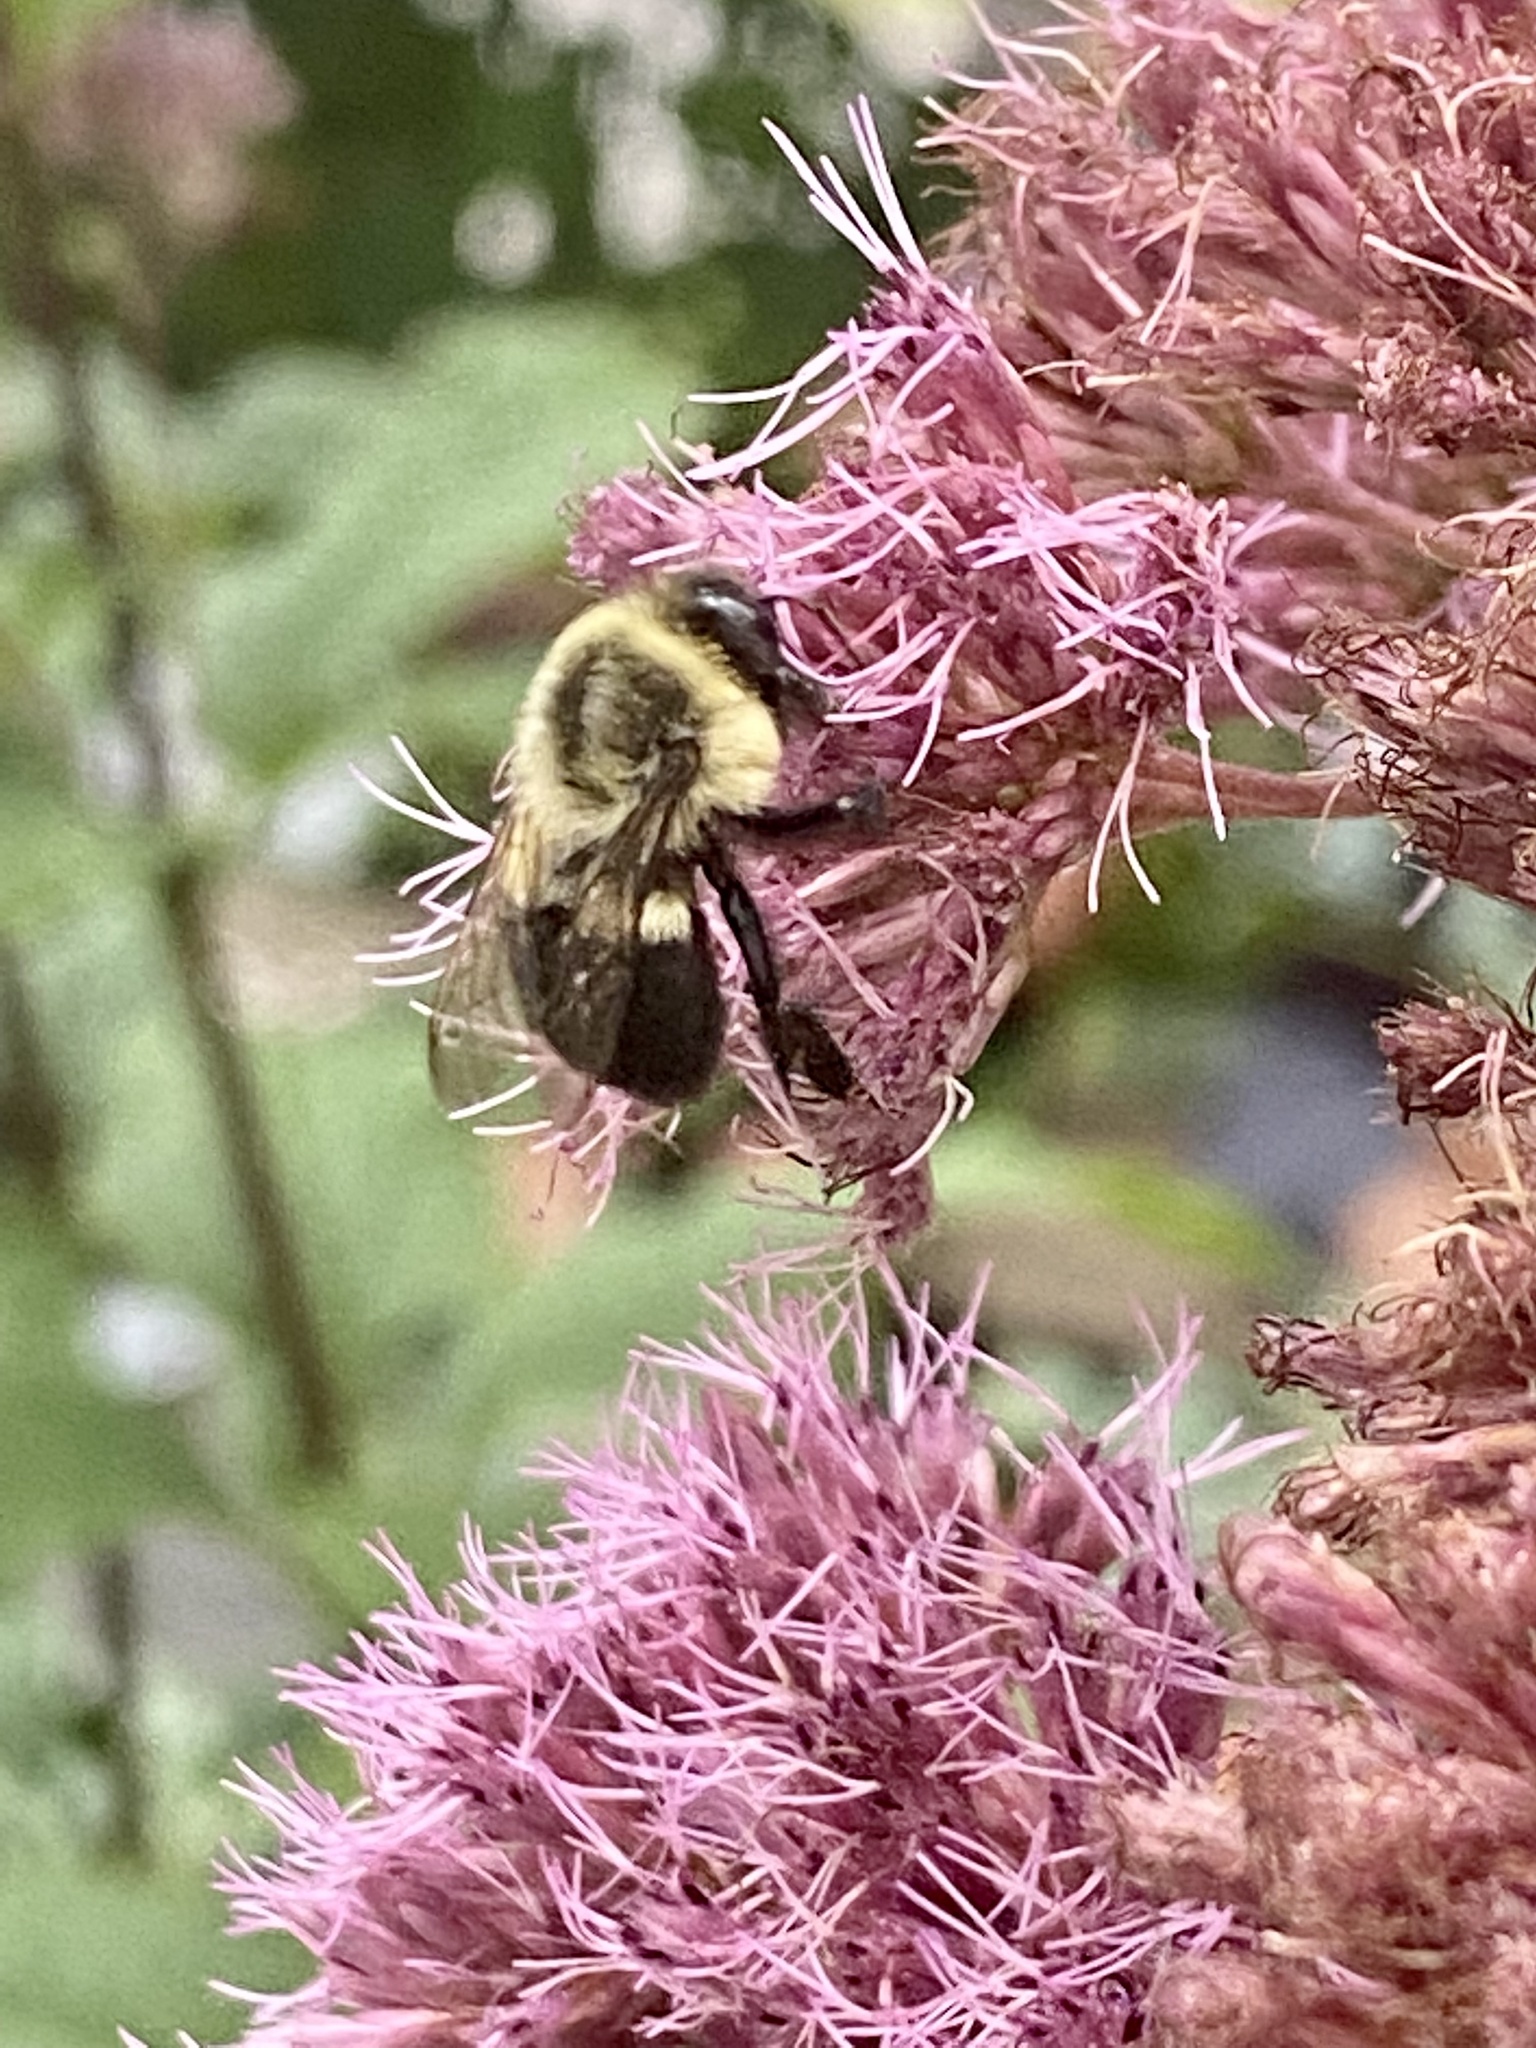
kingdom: Animalia
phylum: Arthropoda
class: Insecta
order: Hymenoptera
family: Apidae
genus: Bombus
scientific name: Bombus impatiens
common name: Common eastern bumble bee
